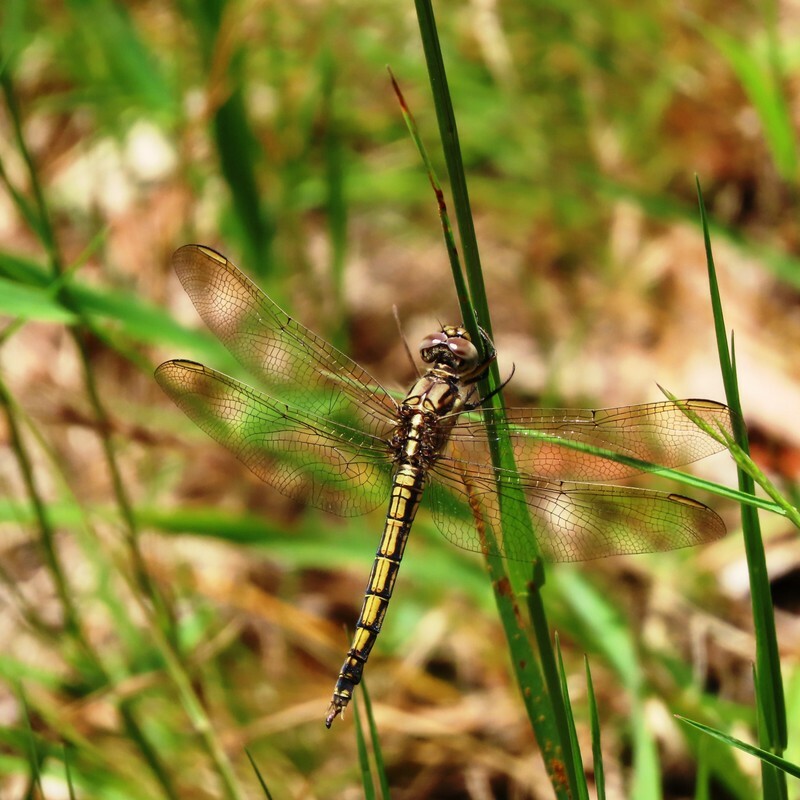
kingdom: Animalia
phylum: Arthropoda
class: Insecta
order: Odonata
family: Libellulidae
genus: Orthetrum
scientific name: Orthetrum caledonicum
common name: Blue skimmer
